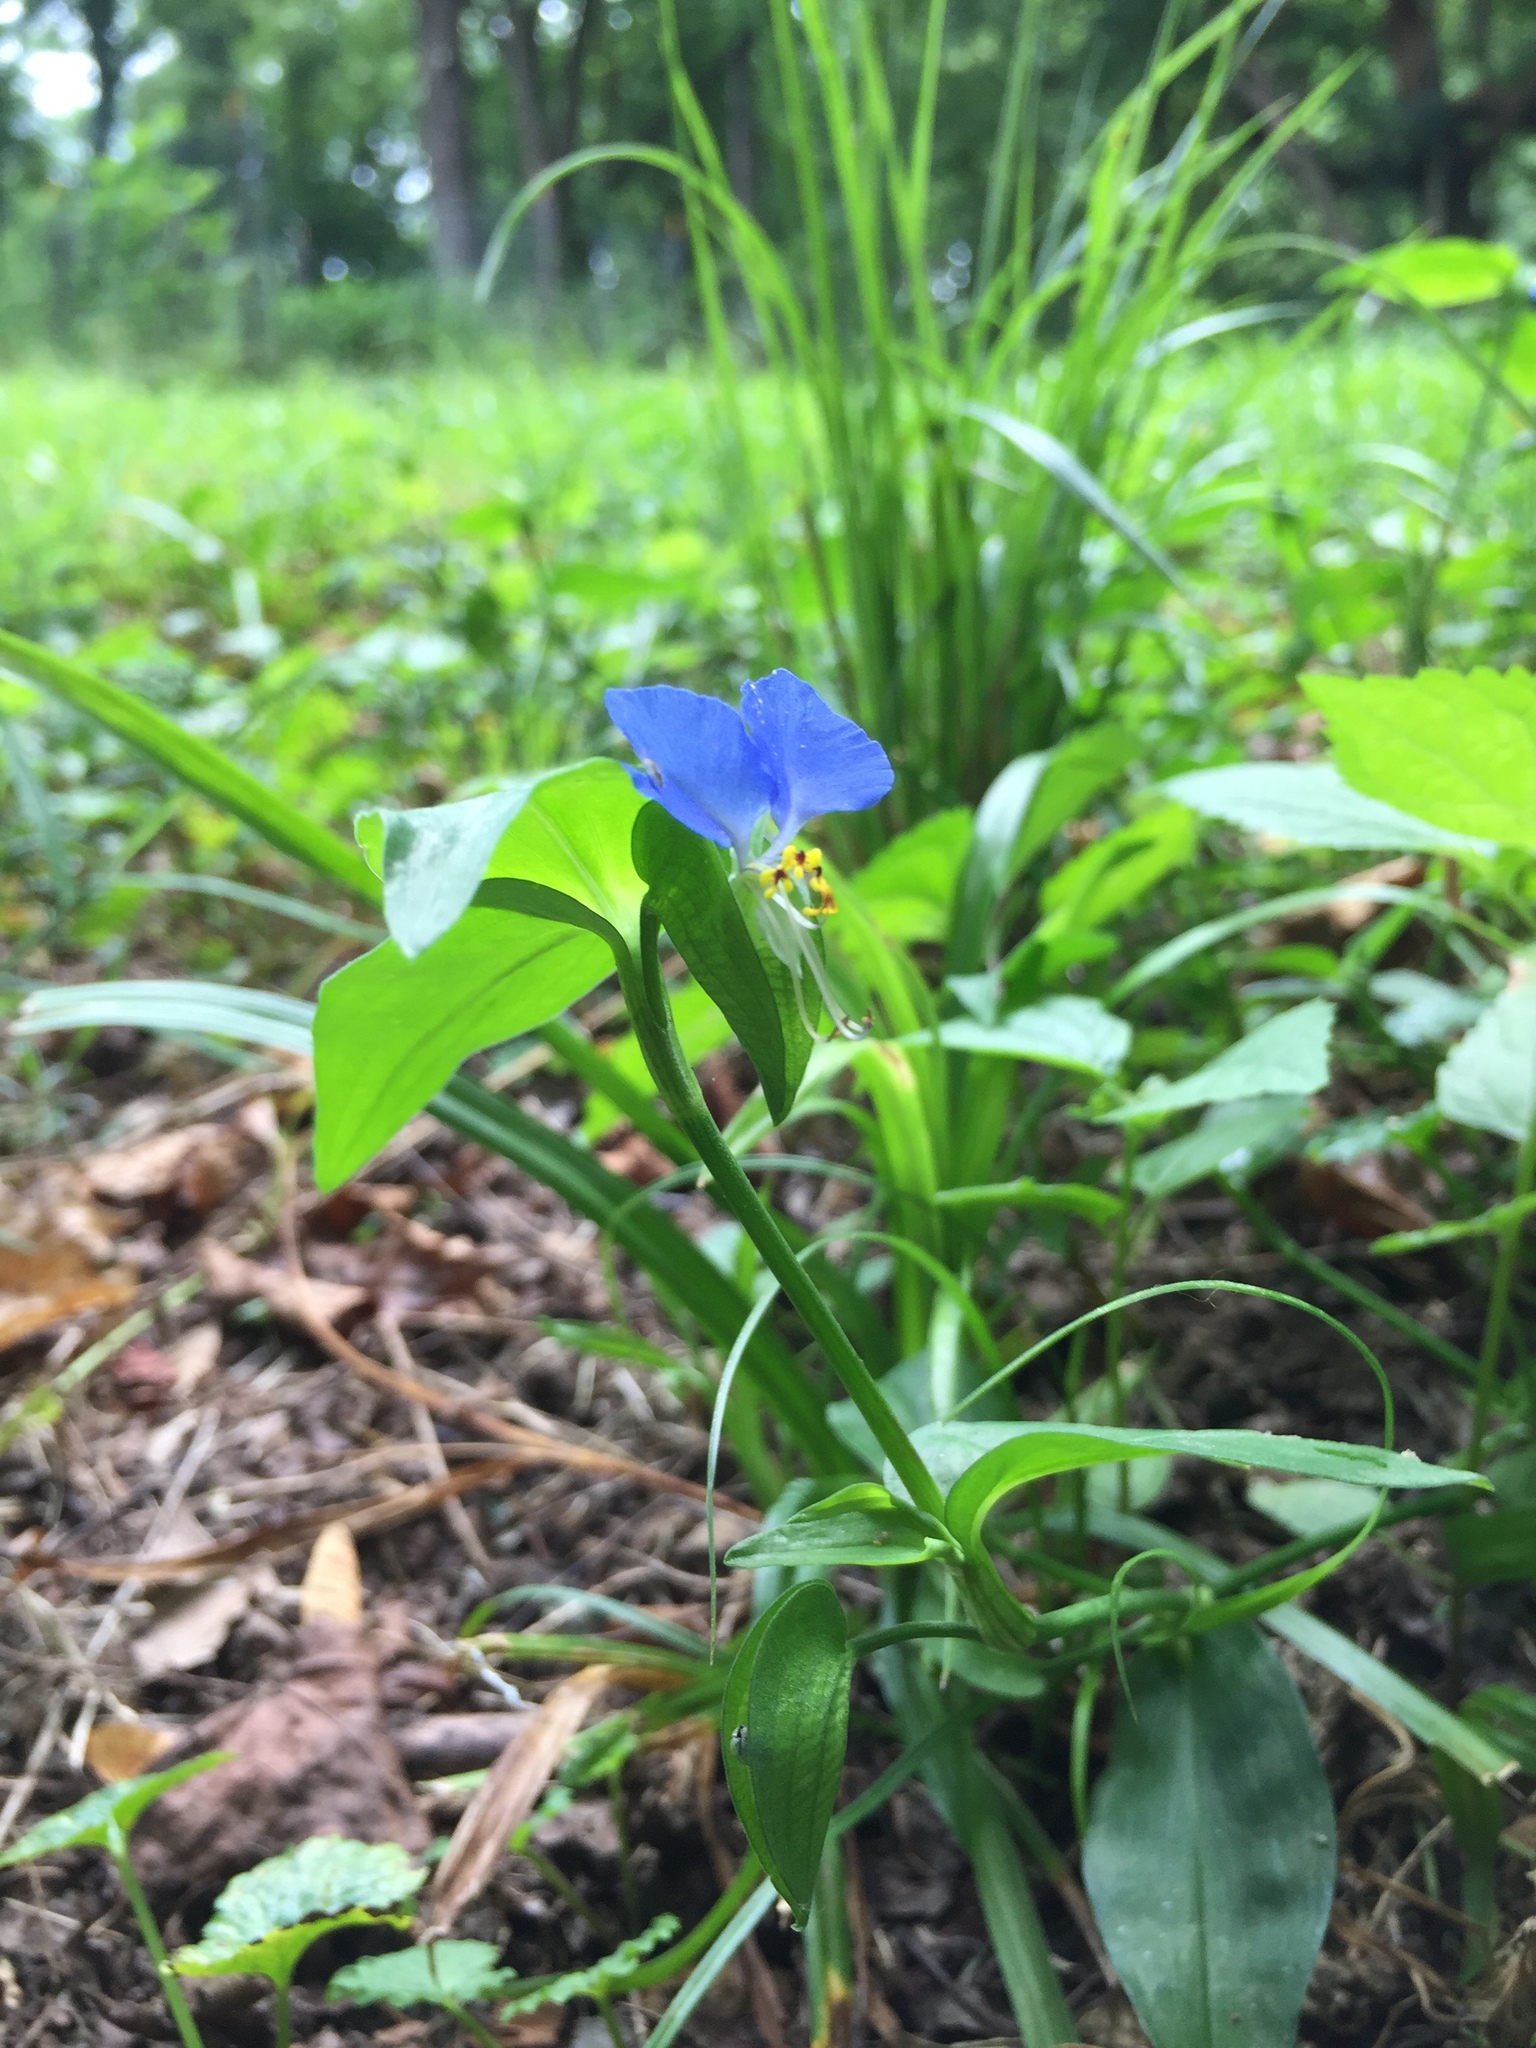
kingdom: Plantae
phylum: Tracheophyta
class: Liliopsida
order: Commelinales
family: Commelinaceae
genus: Commelina
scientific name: Commelina communis
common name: Asiatic dayflower
